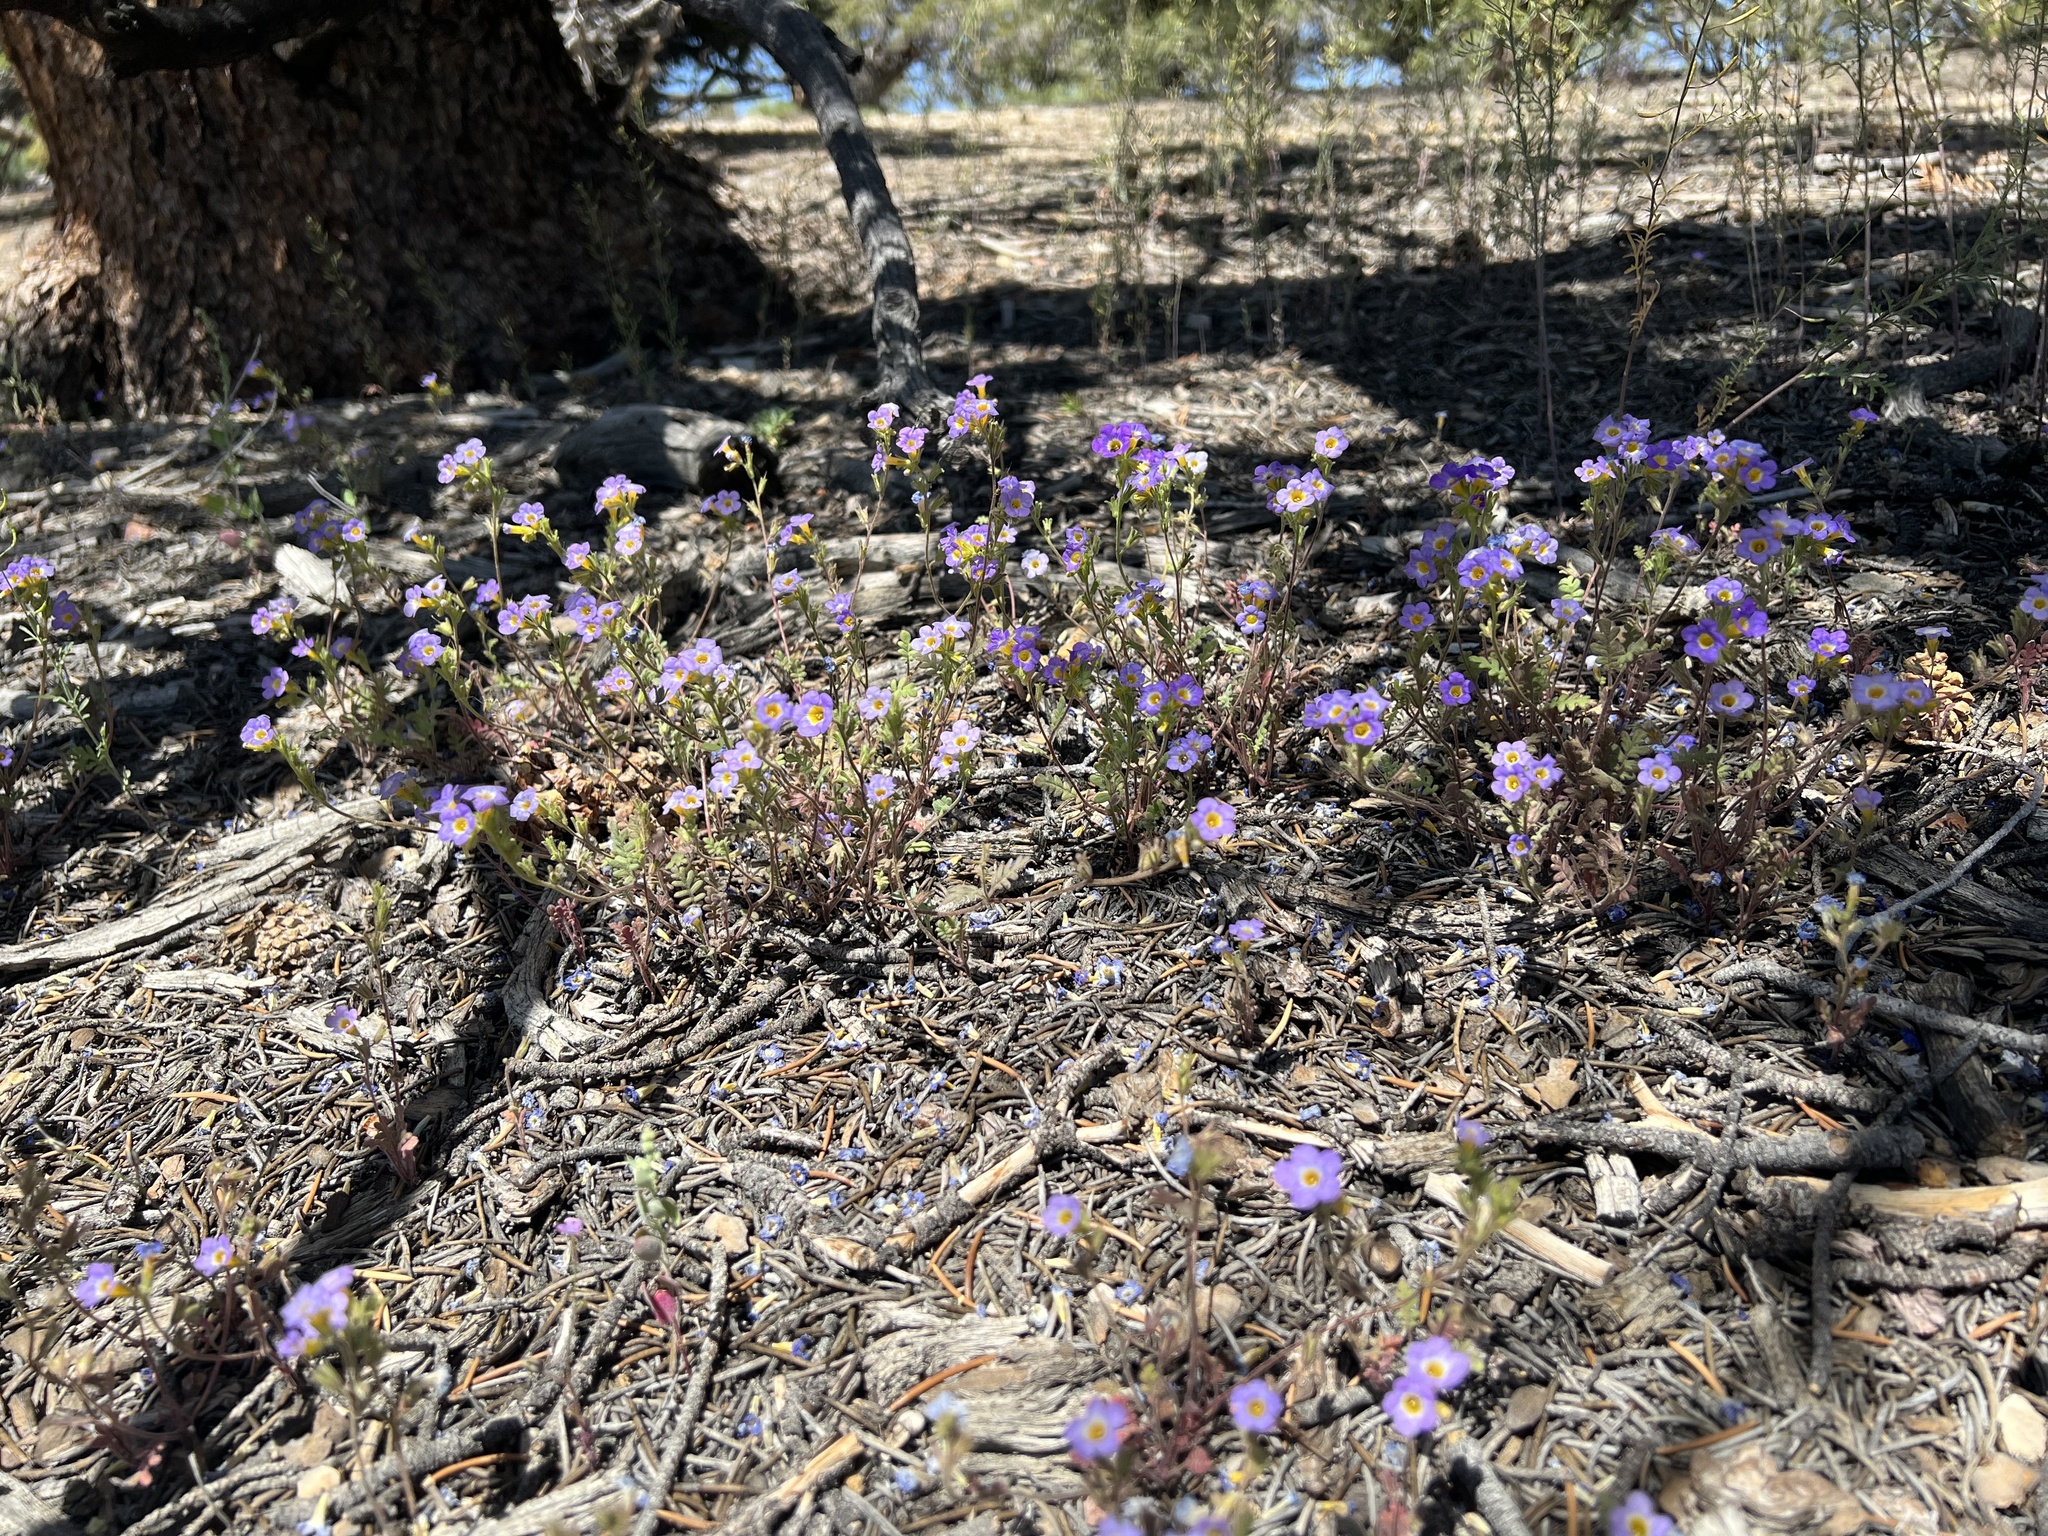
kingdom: Plantae
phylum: Tracheophyta
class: Magnoliopsida
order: Boraginales
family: Hydrophyllaceae
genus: Phacelia
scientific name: Phacelia fremontii
